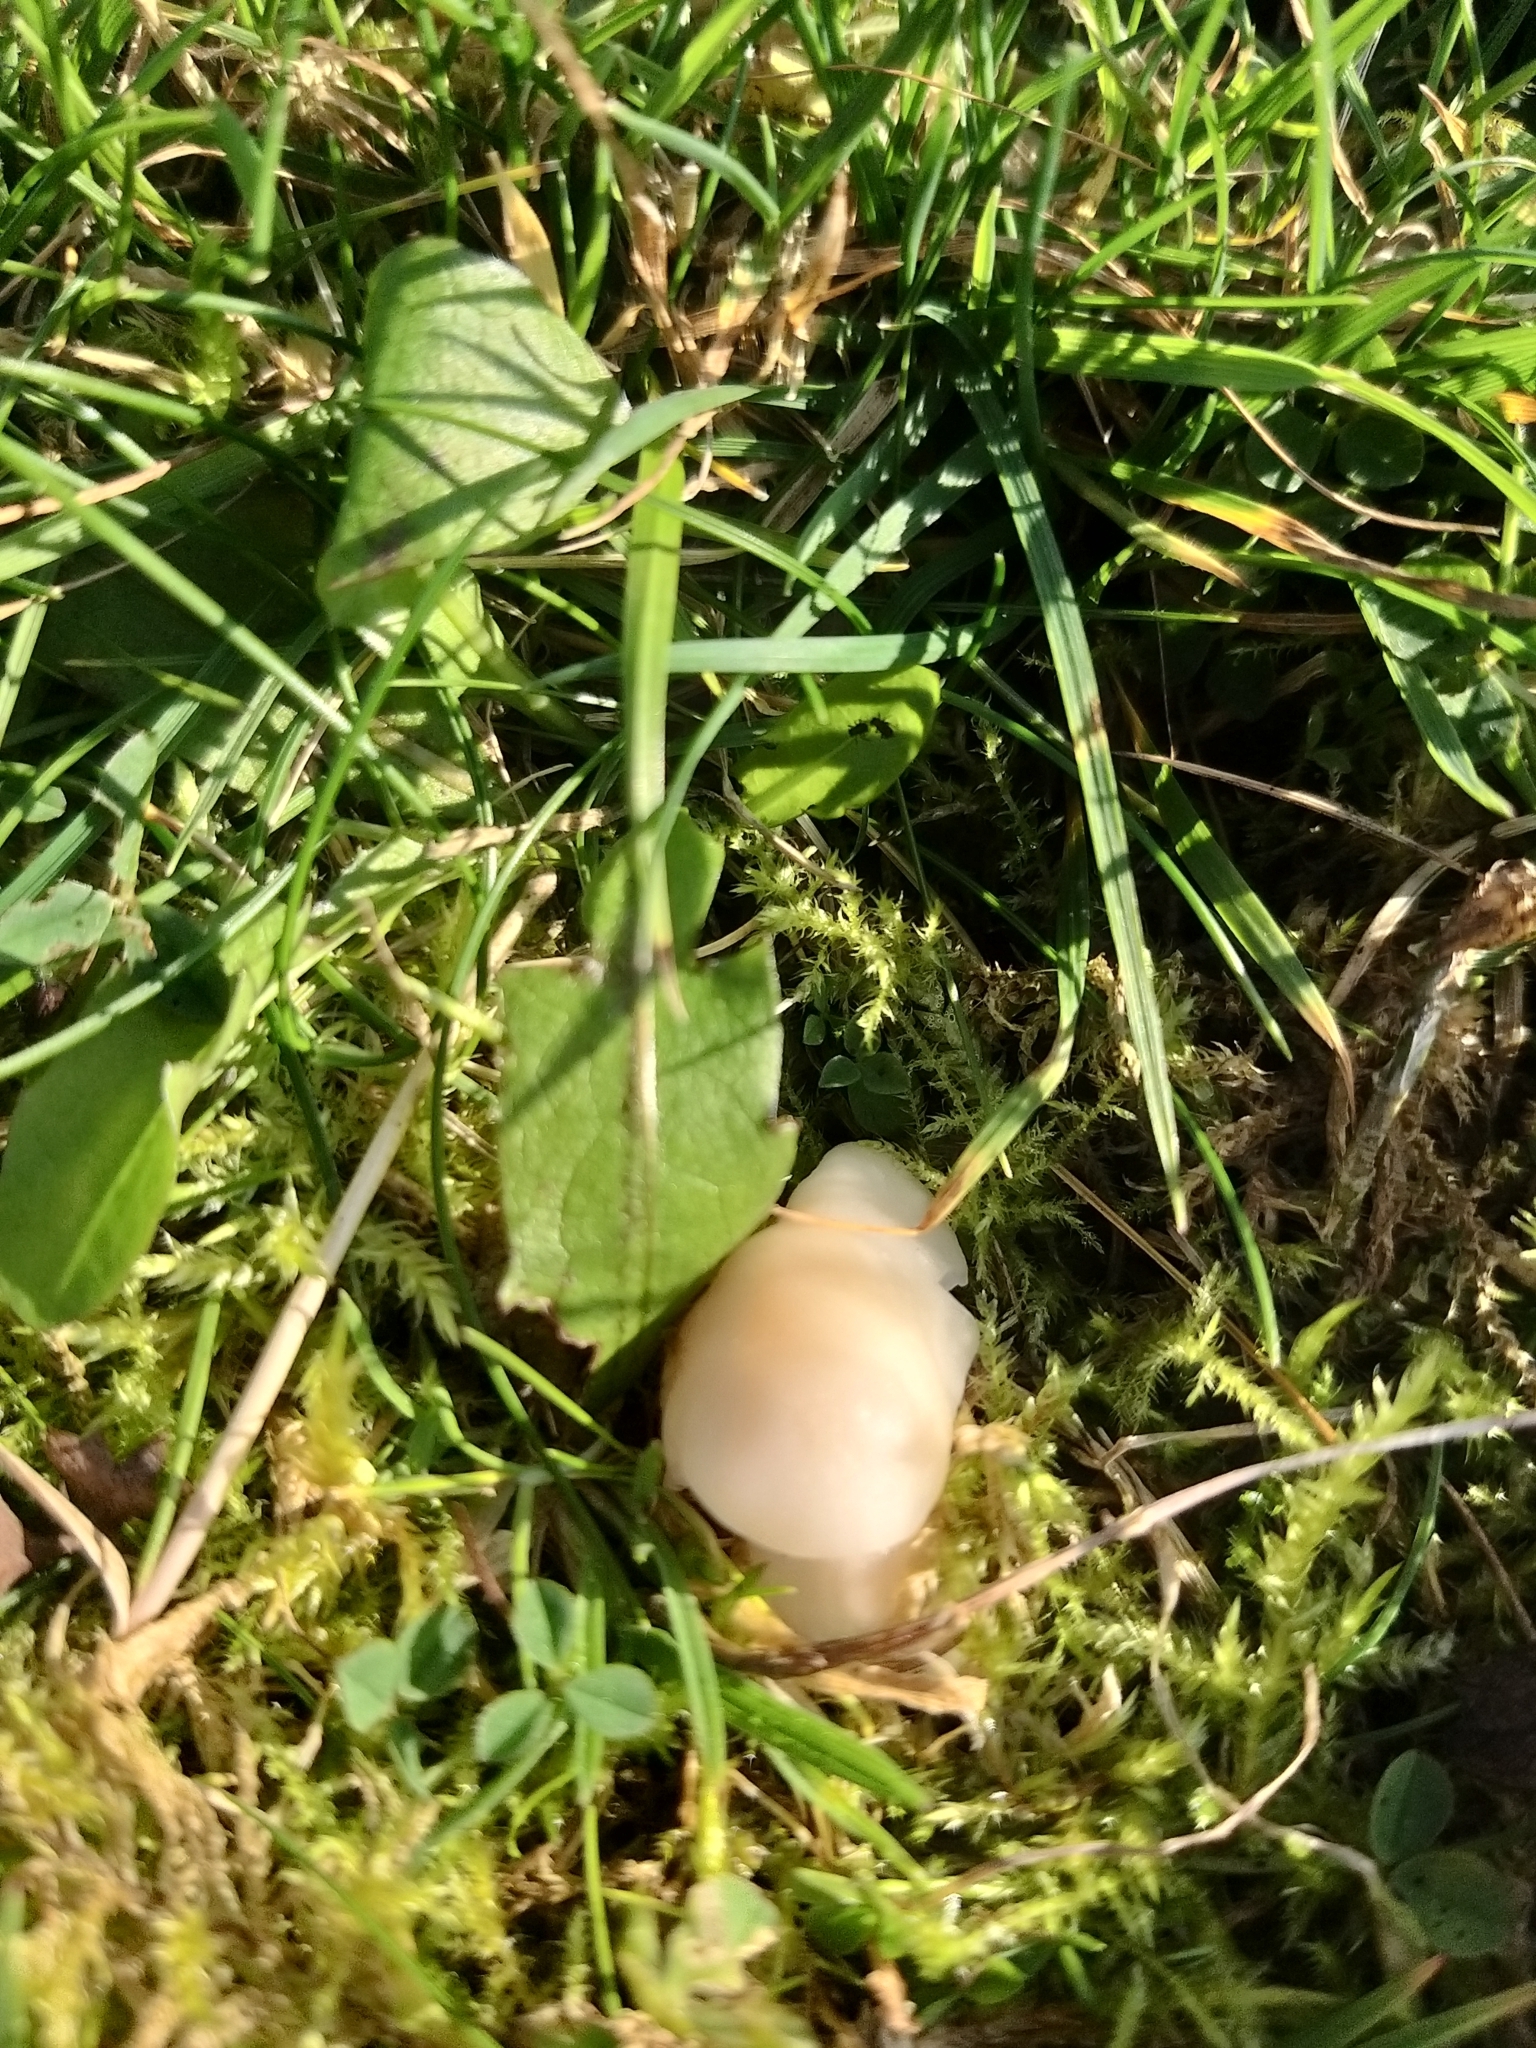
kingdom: Fungi
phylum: Basidiomycota
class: Agaricomycetes
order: Agaricales
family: Hygrophoraceae
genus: Cuphophyllus
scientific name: Cuphophyllus virgineus
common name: Snowy waxcap
